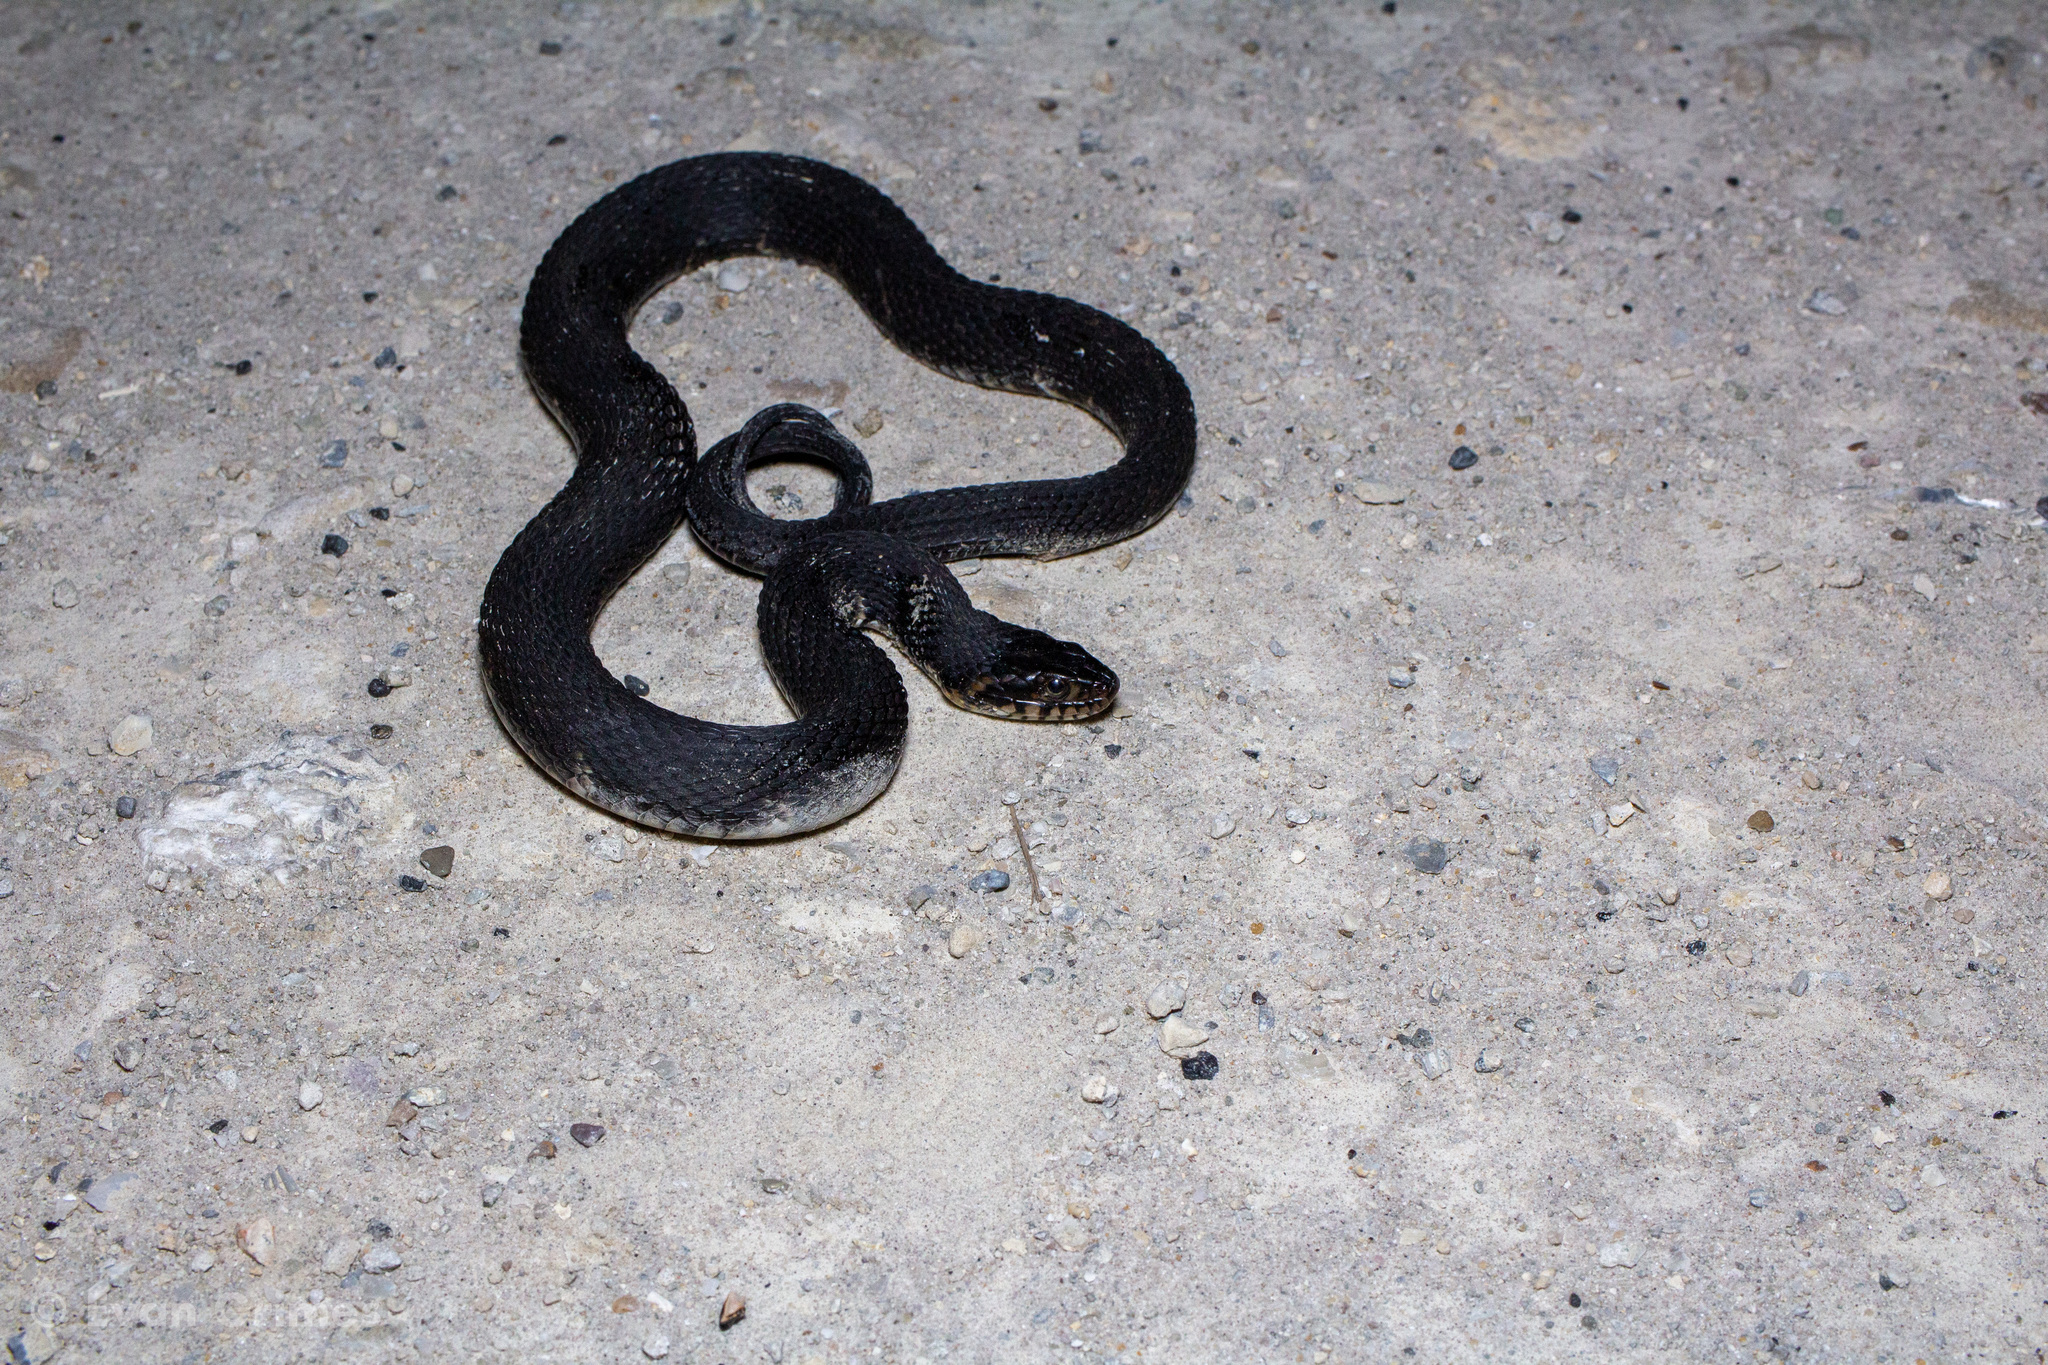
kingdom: Animalia
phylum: Chordata
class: Squamata
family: Colubridae
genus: Nerodia
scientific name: Nerodia fasciata
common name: Southern water snake
